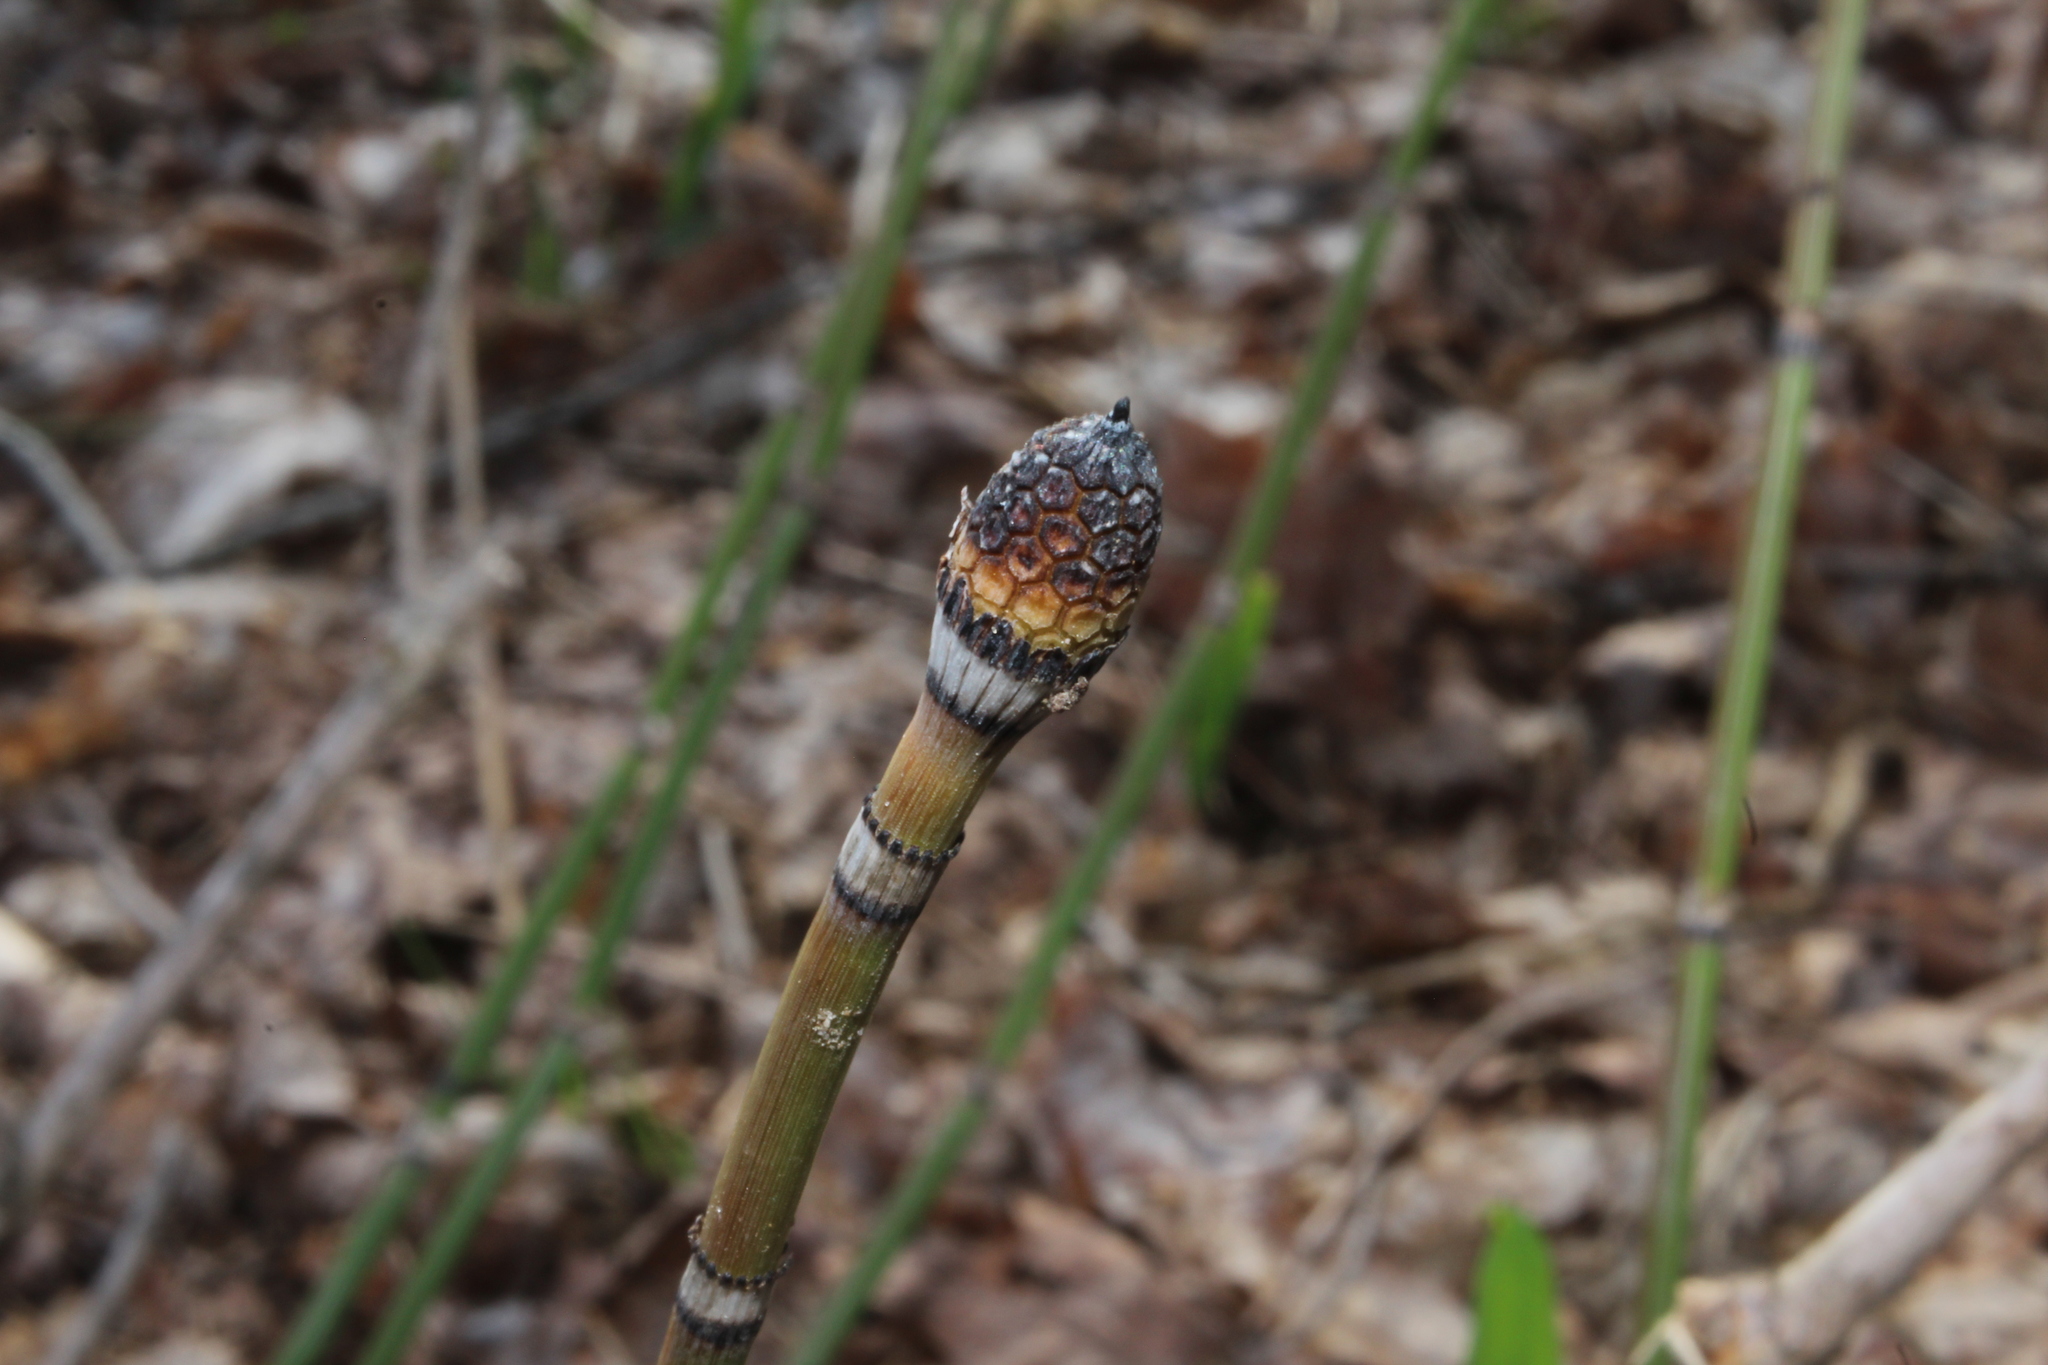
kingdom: Plantae
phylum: Tracheophyta
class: Polypodiopsida
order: Equisetales
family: Equisetaceae
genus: Equisetum
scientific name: Equisetum praealtum
